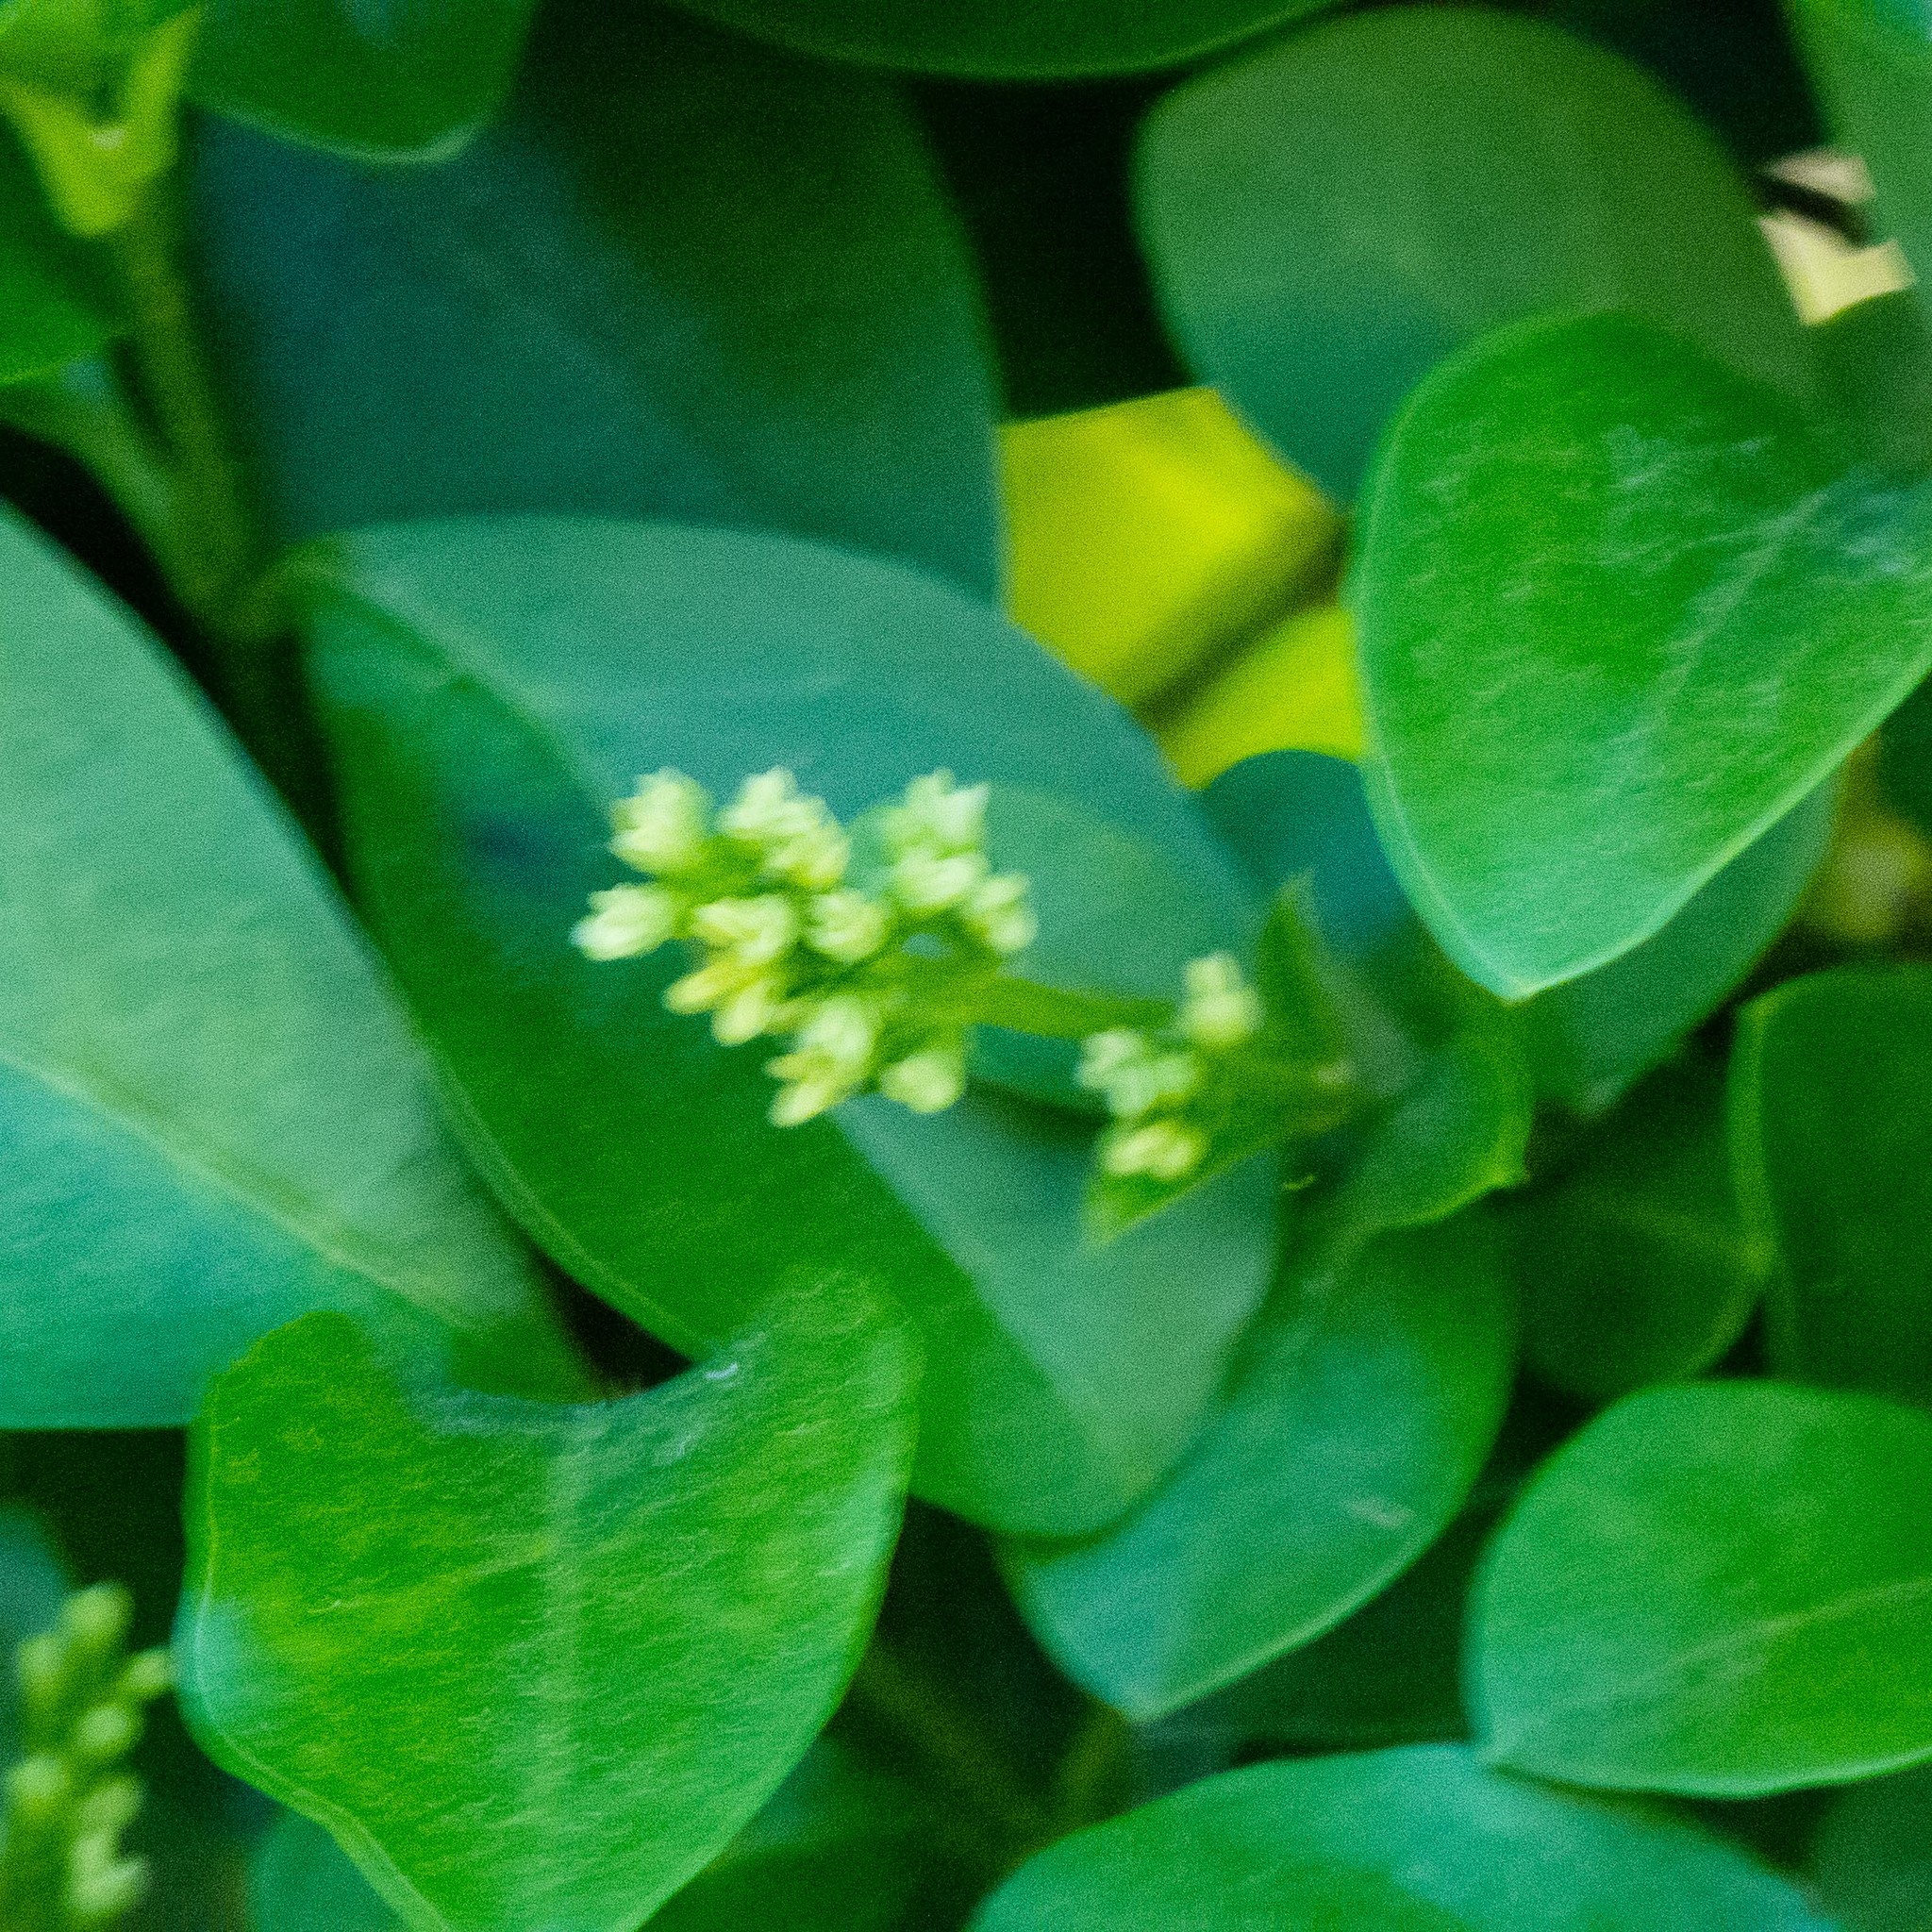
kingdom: Plantae
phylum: Tracheophyta
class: Magnoliopsida
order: Lamiales
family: Oleaceae
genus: Ligustrum
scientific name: Ligustrum ovalifolium
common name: California privet
